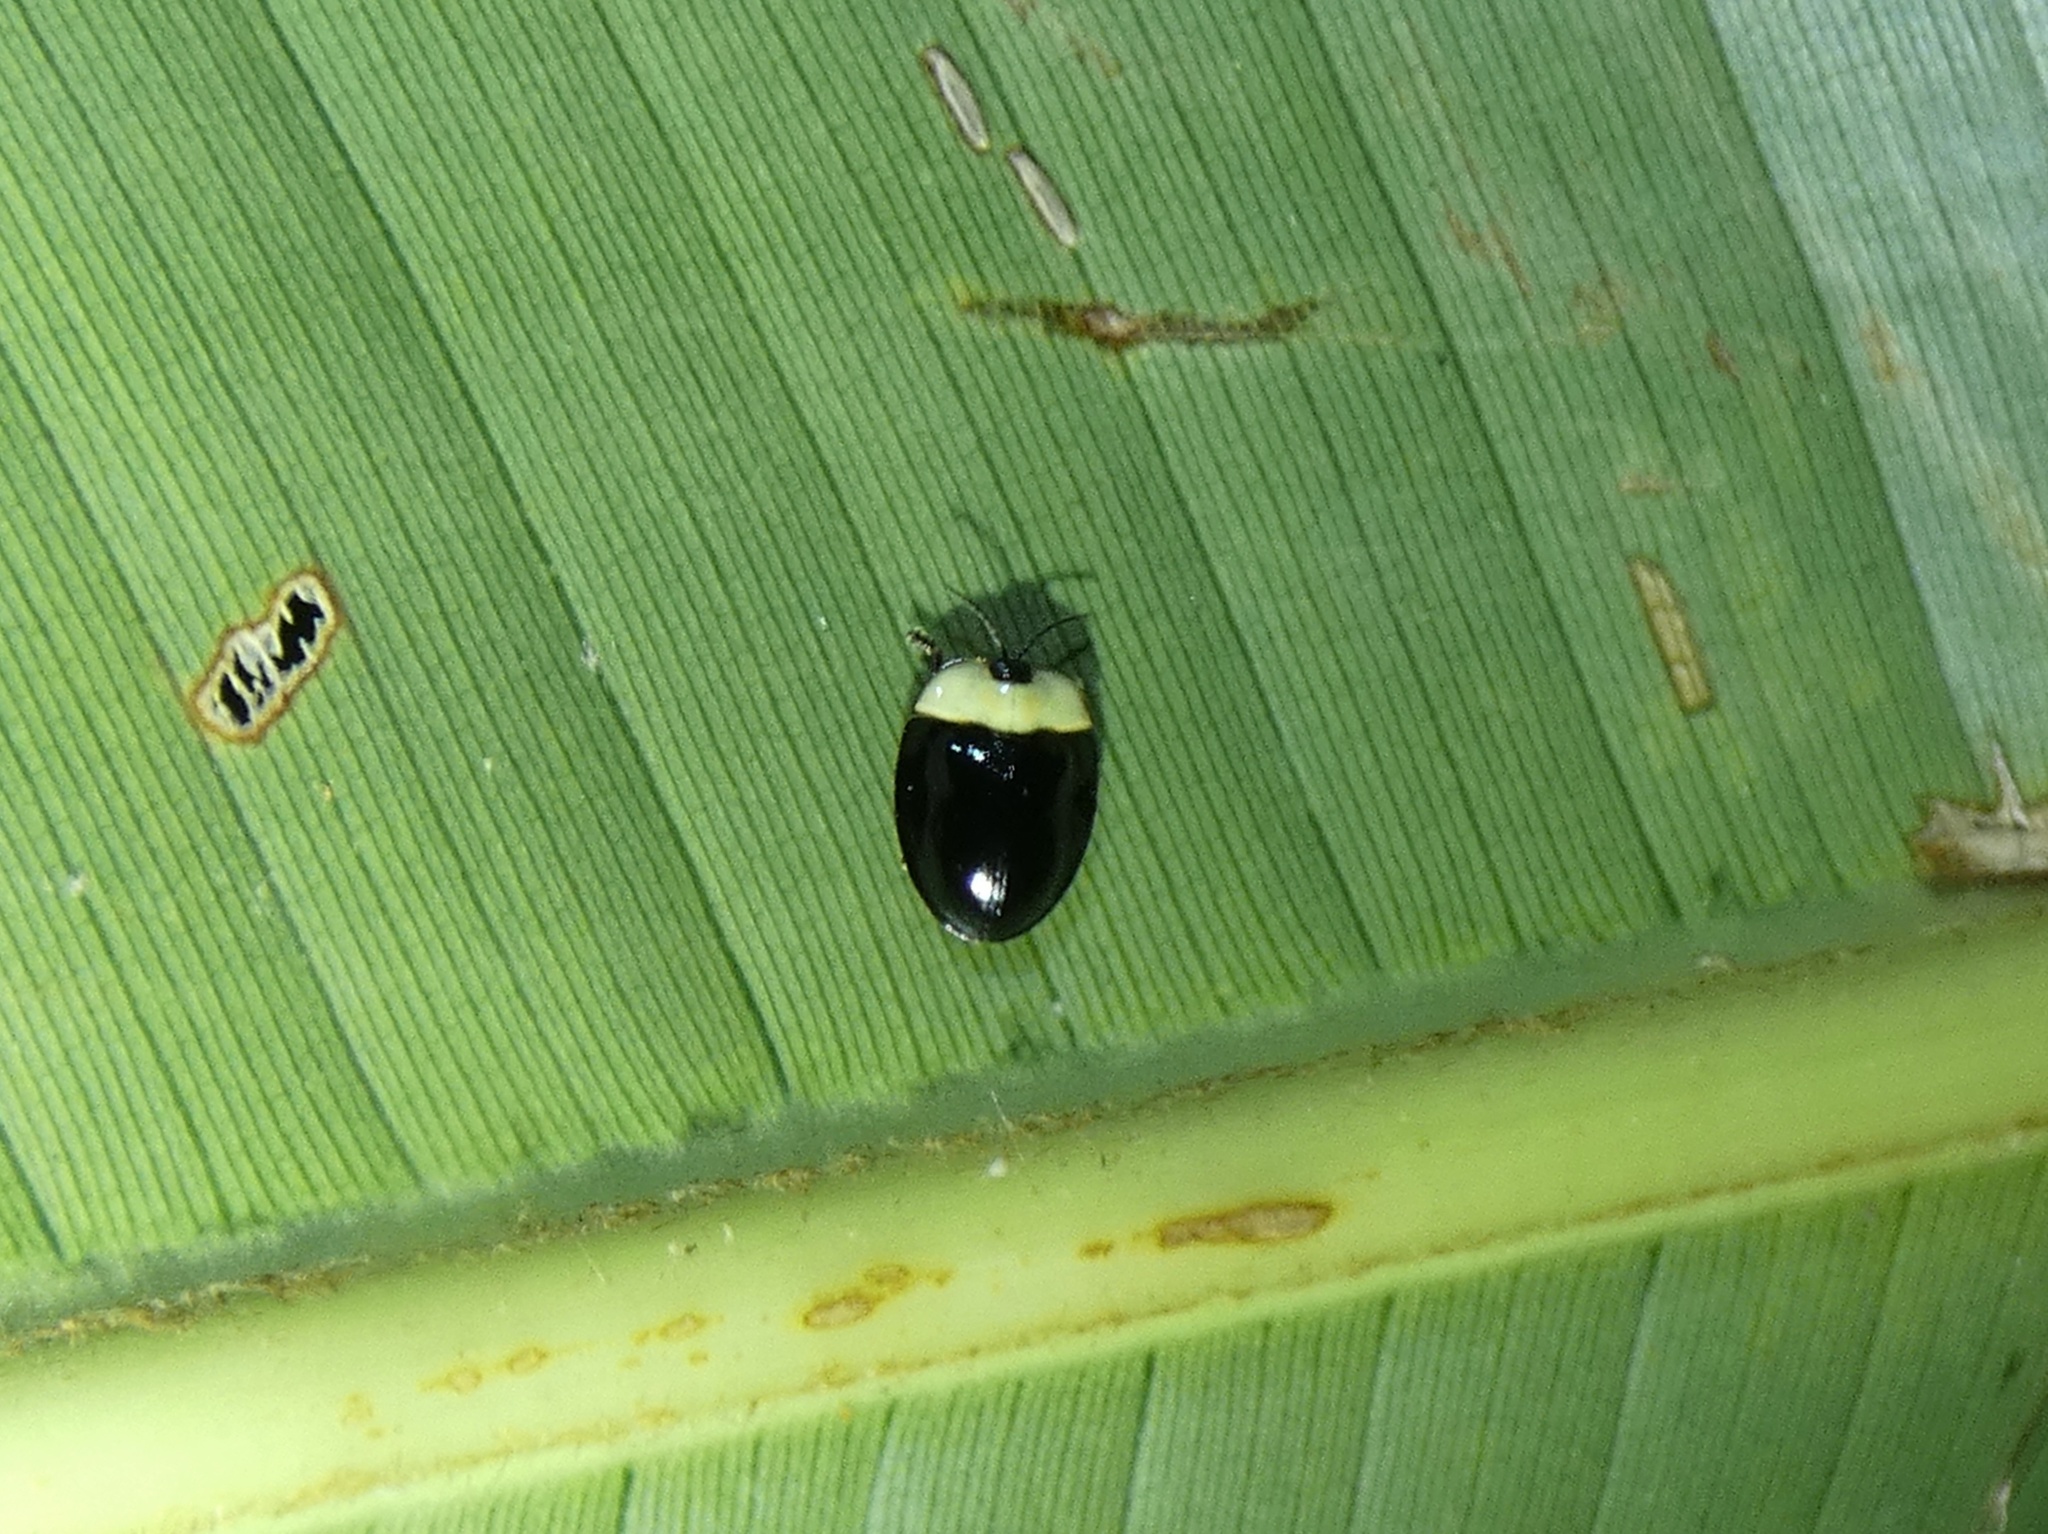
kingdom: Animalia
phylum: Arthropoda
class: Insecta
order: Coleoptera
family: Chrysomelidae
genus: Imatidium
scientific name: Imatidium thoracicum
